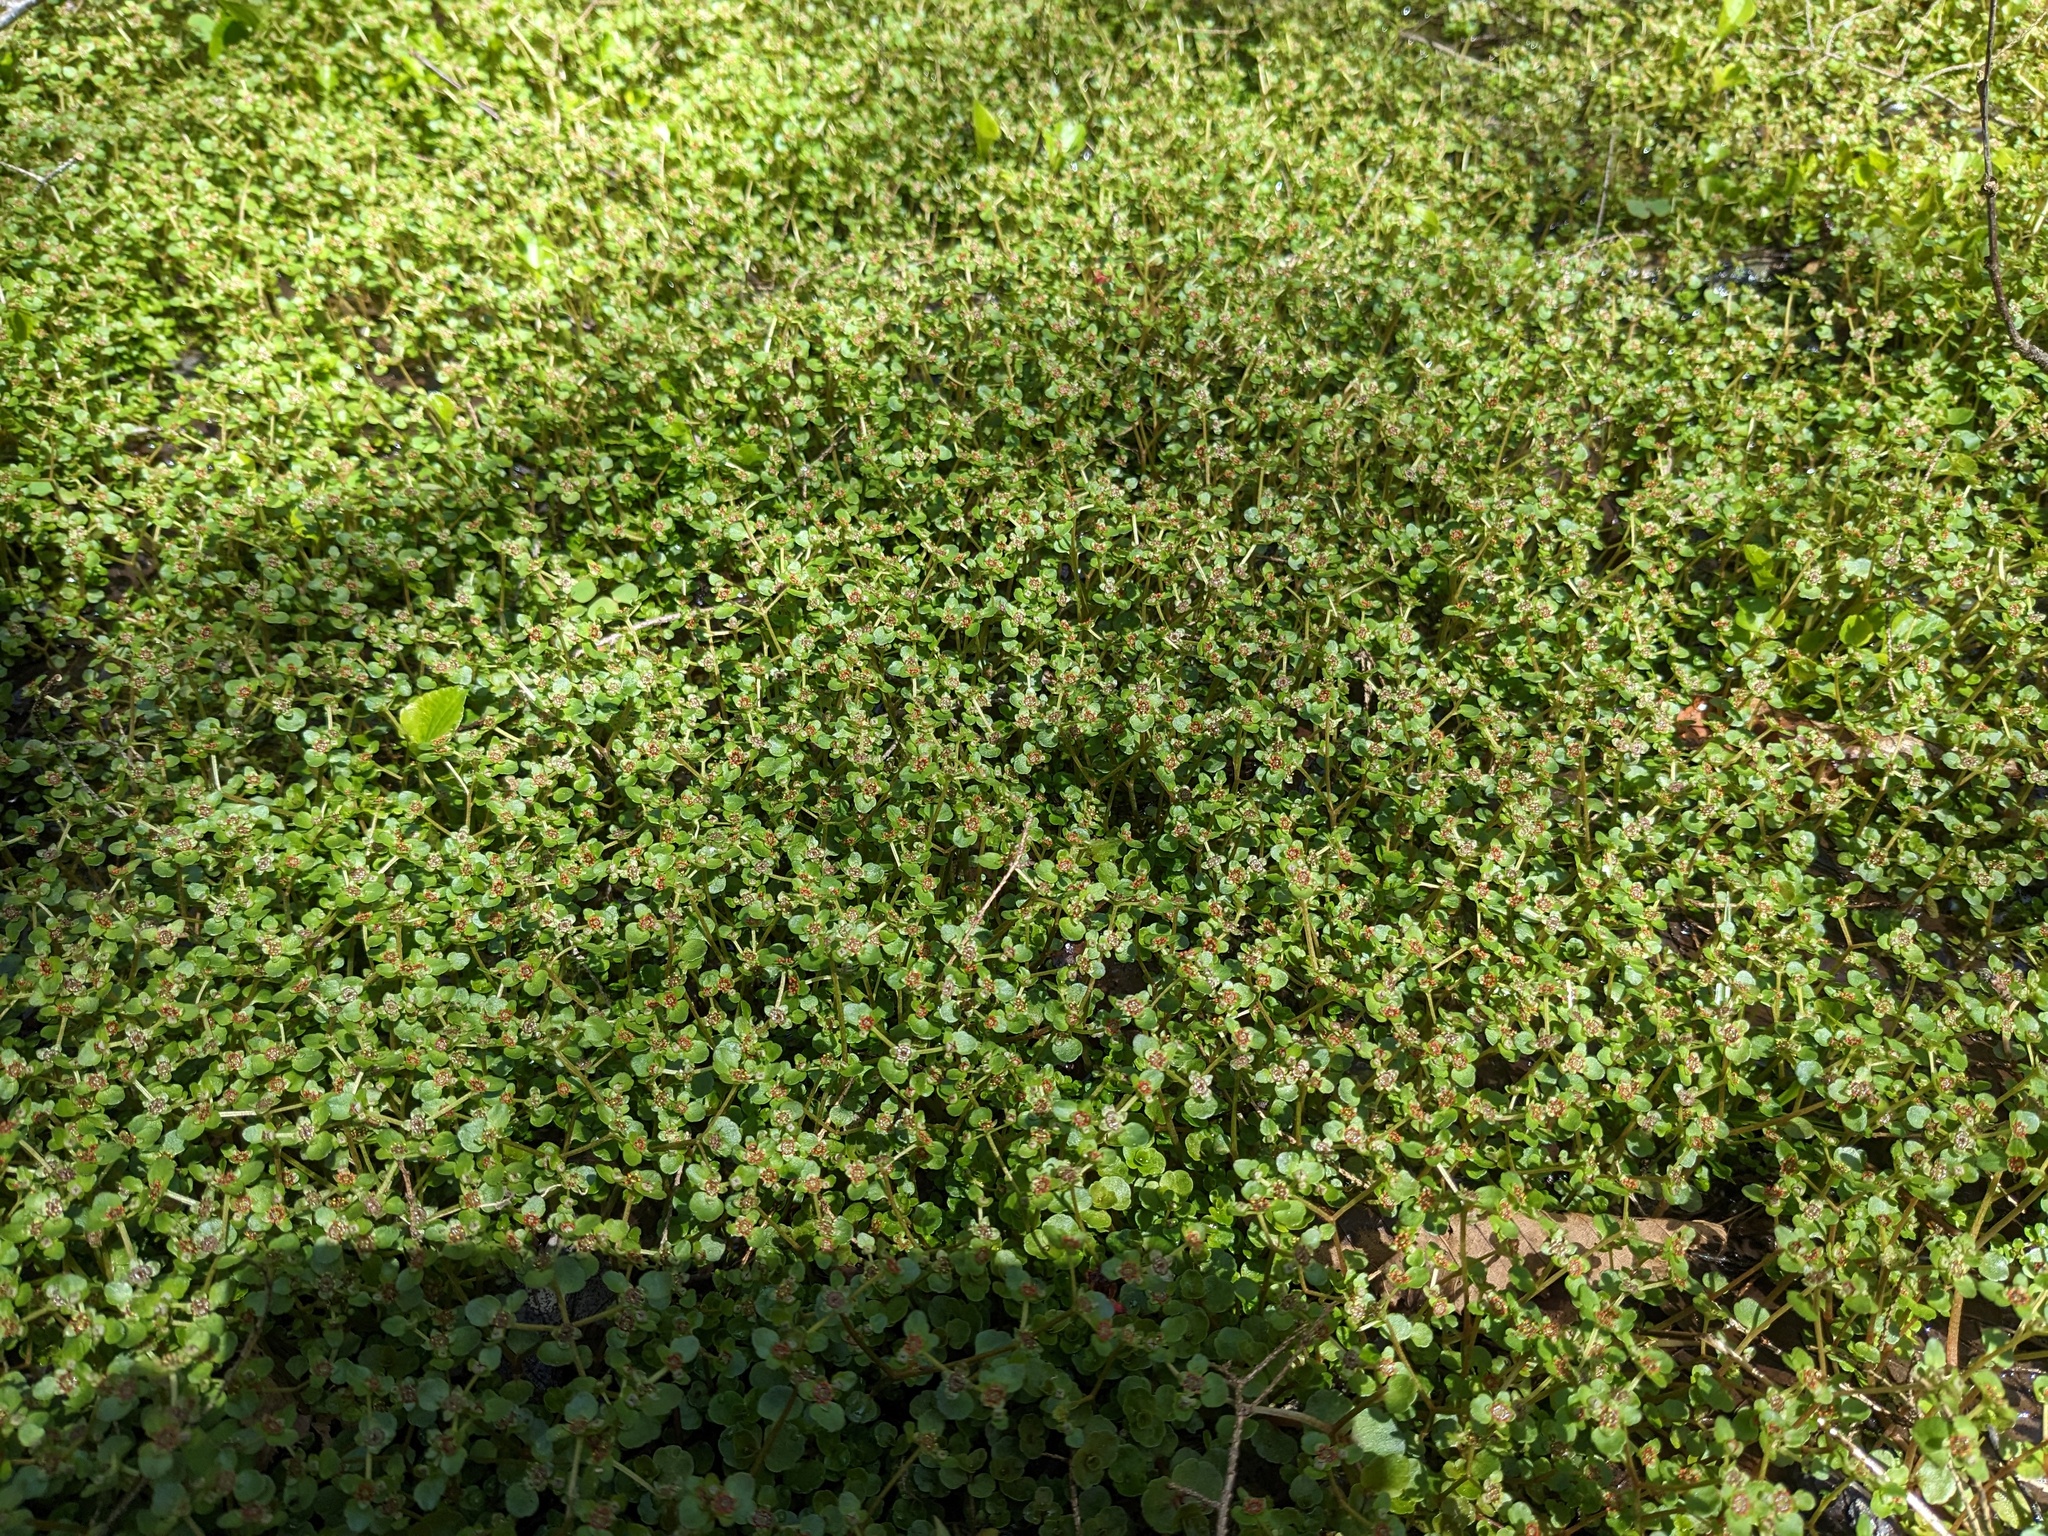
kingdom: Plantae
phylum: Tracheophyta
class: Magnoliopsida
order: Saxifragales
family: Saxifragaceae
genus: Chrysosplenium
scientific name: Chrysosplenium americanum
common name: American golden-saxifrage
